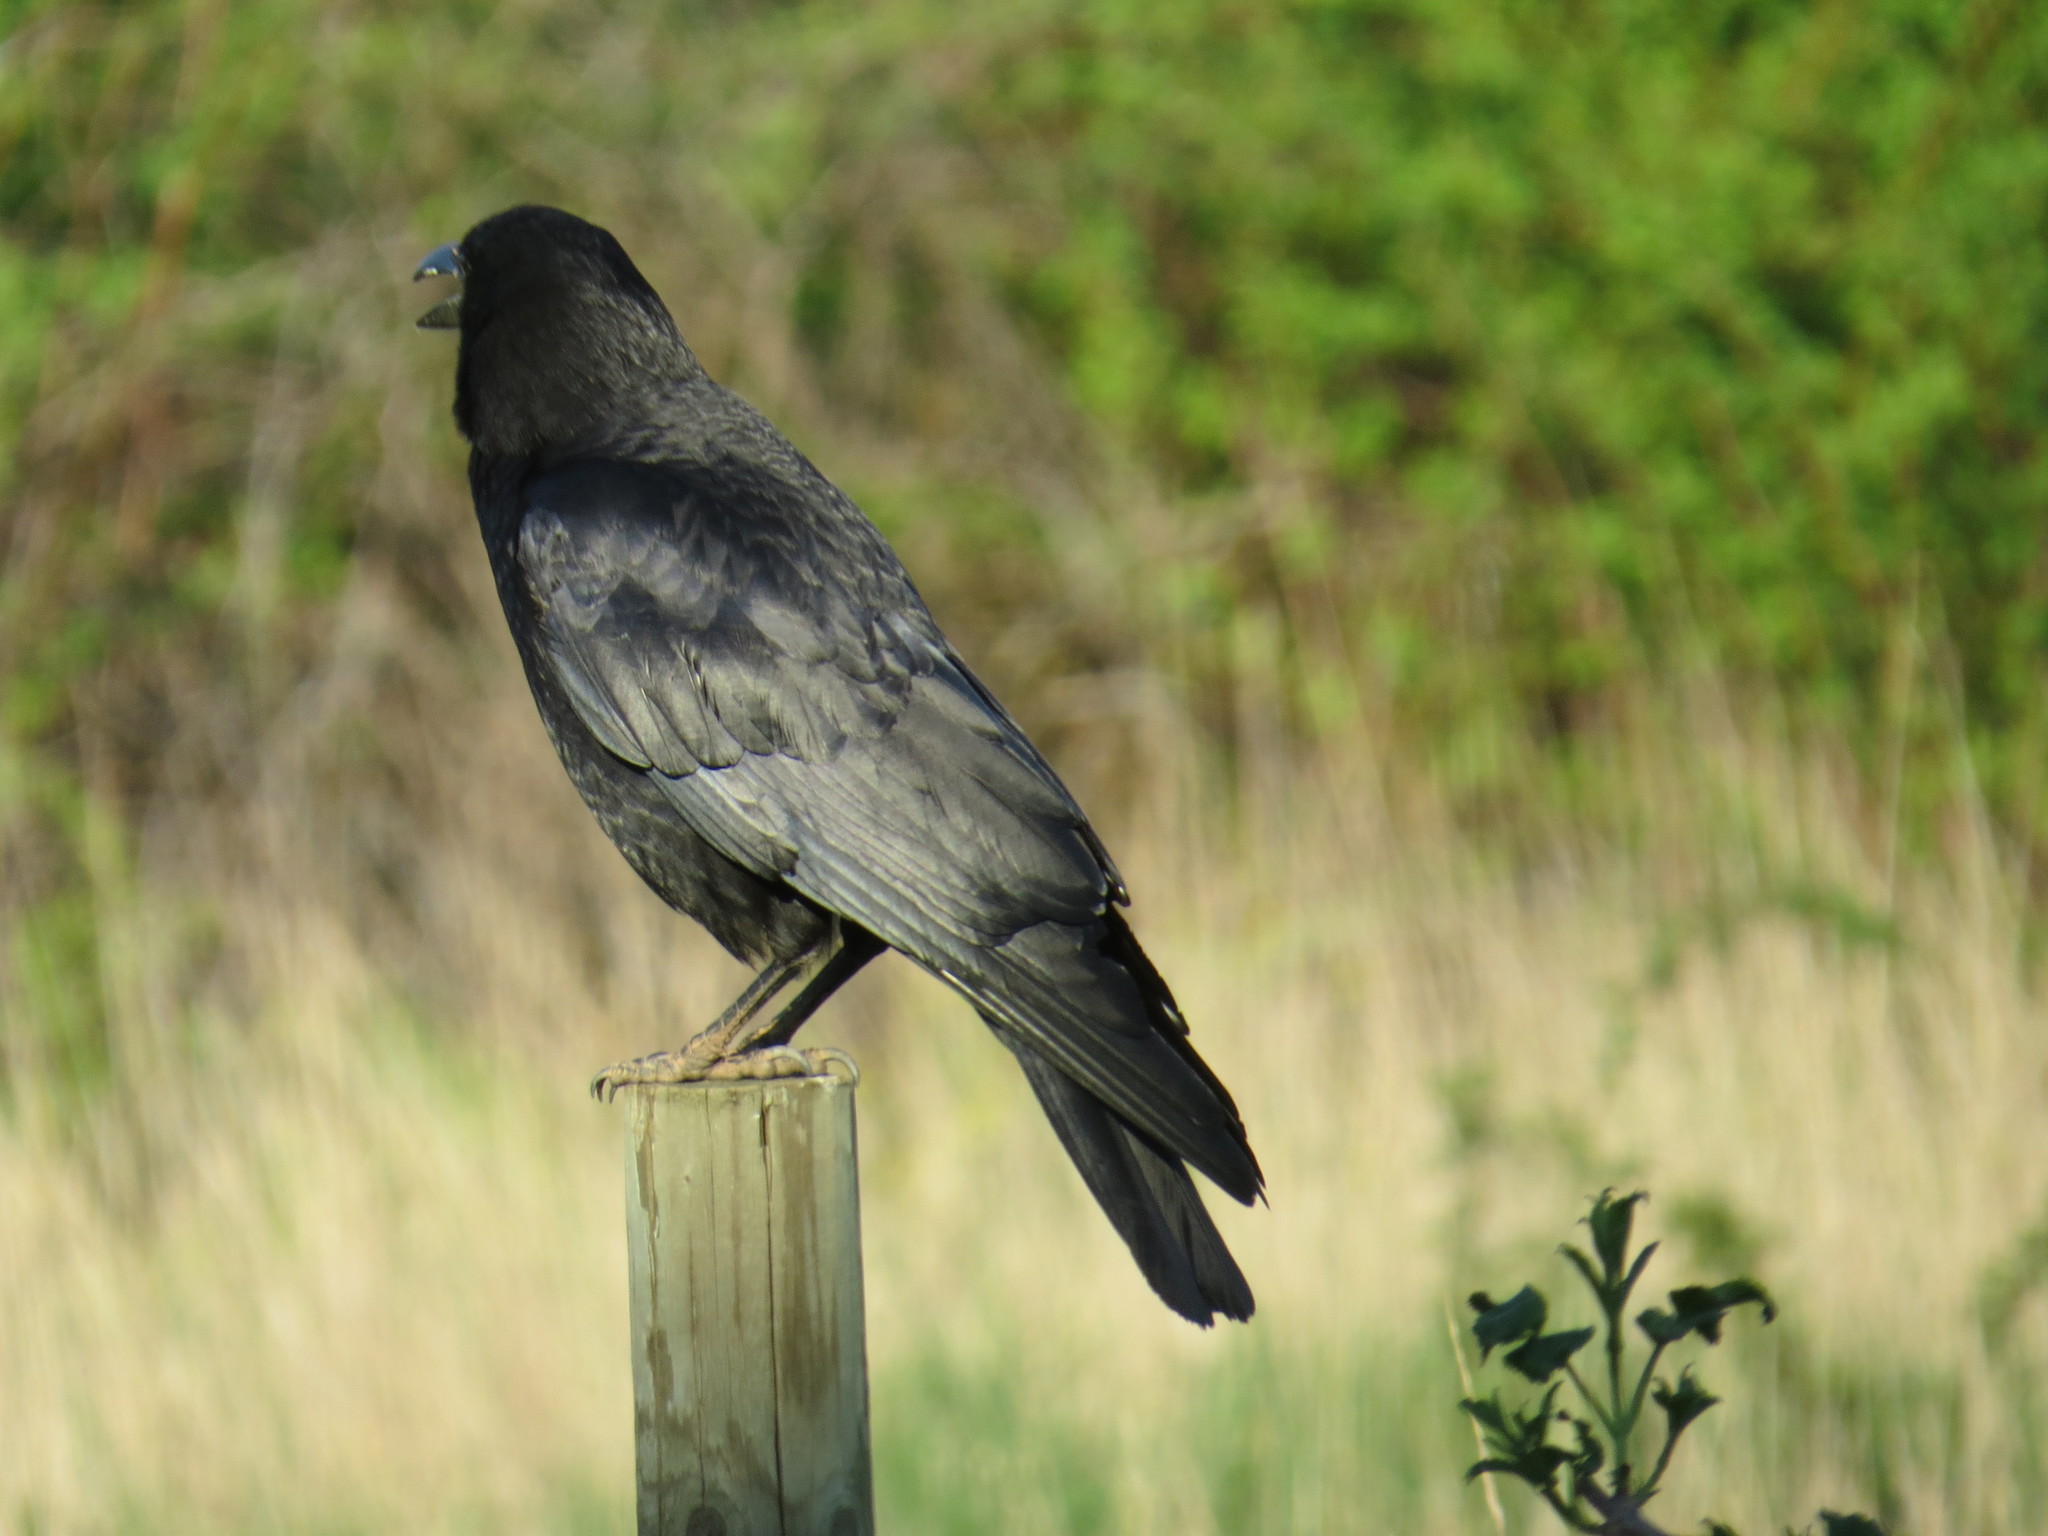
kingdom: Animalia
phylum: Chordata
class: Aves
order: Passeriformes
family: Corvidae
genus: Corvus
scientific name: Corvus brachyrhynchos
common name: American crow
